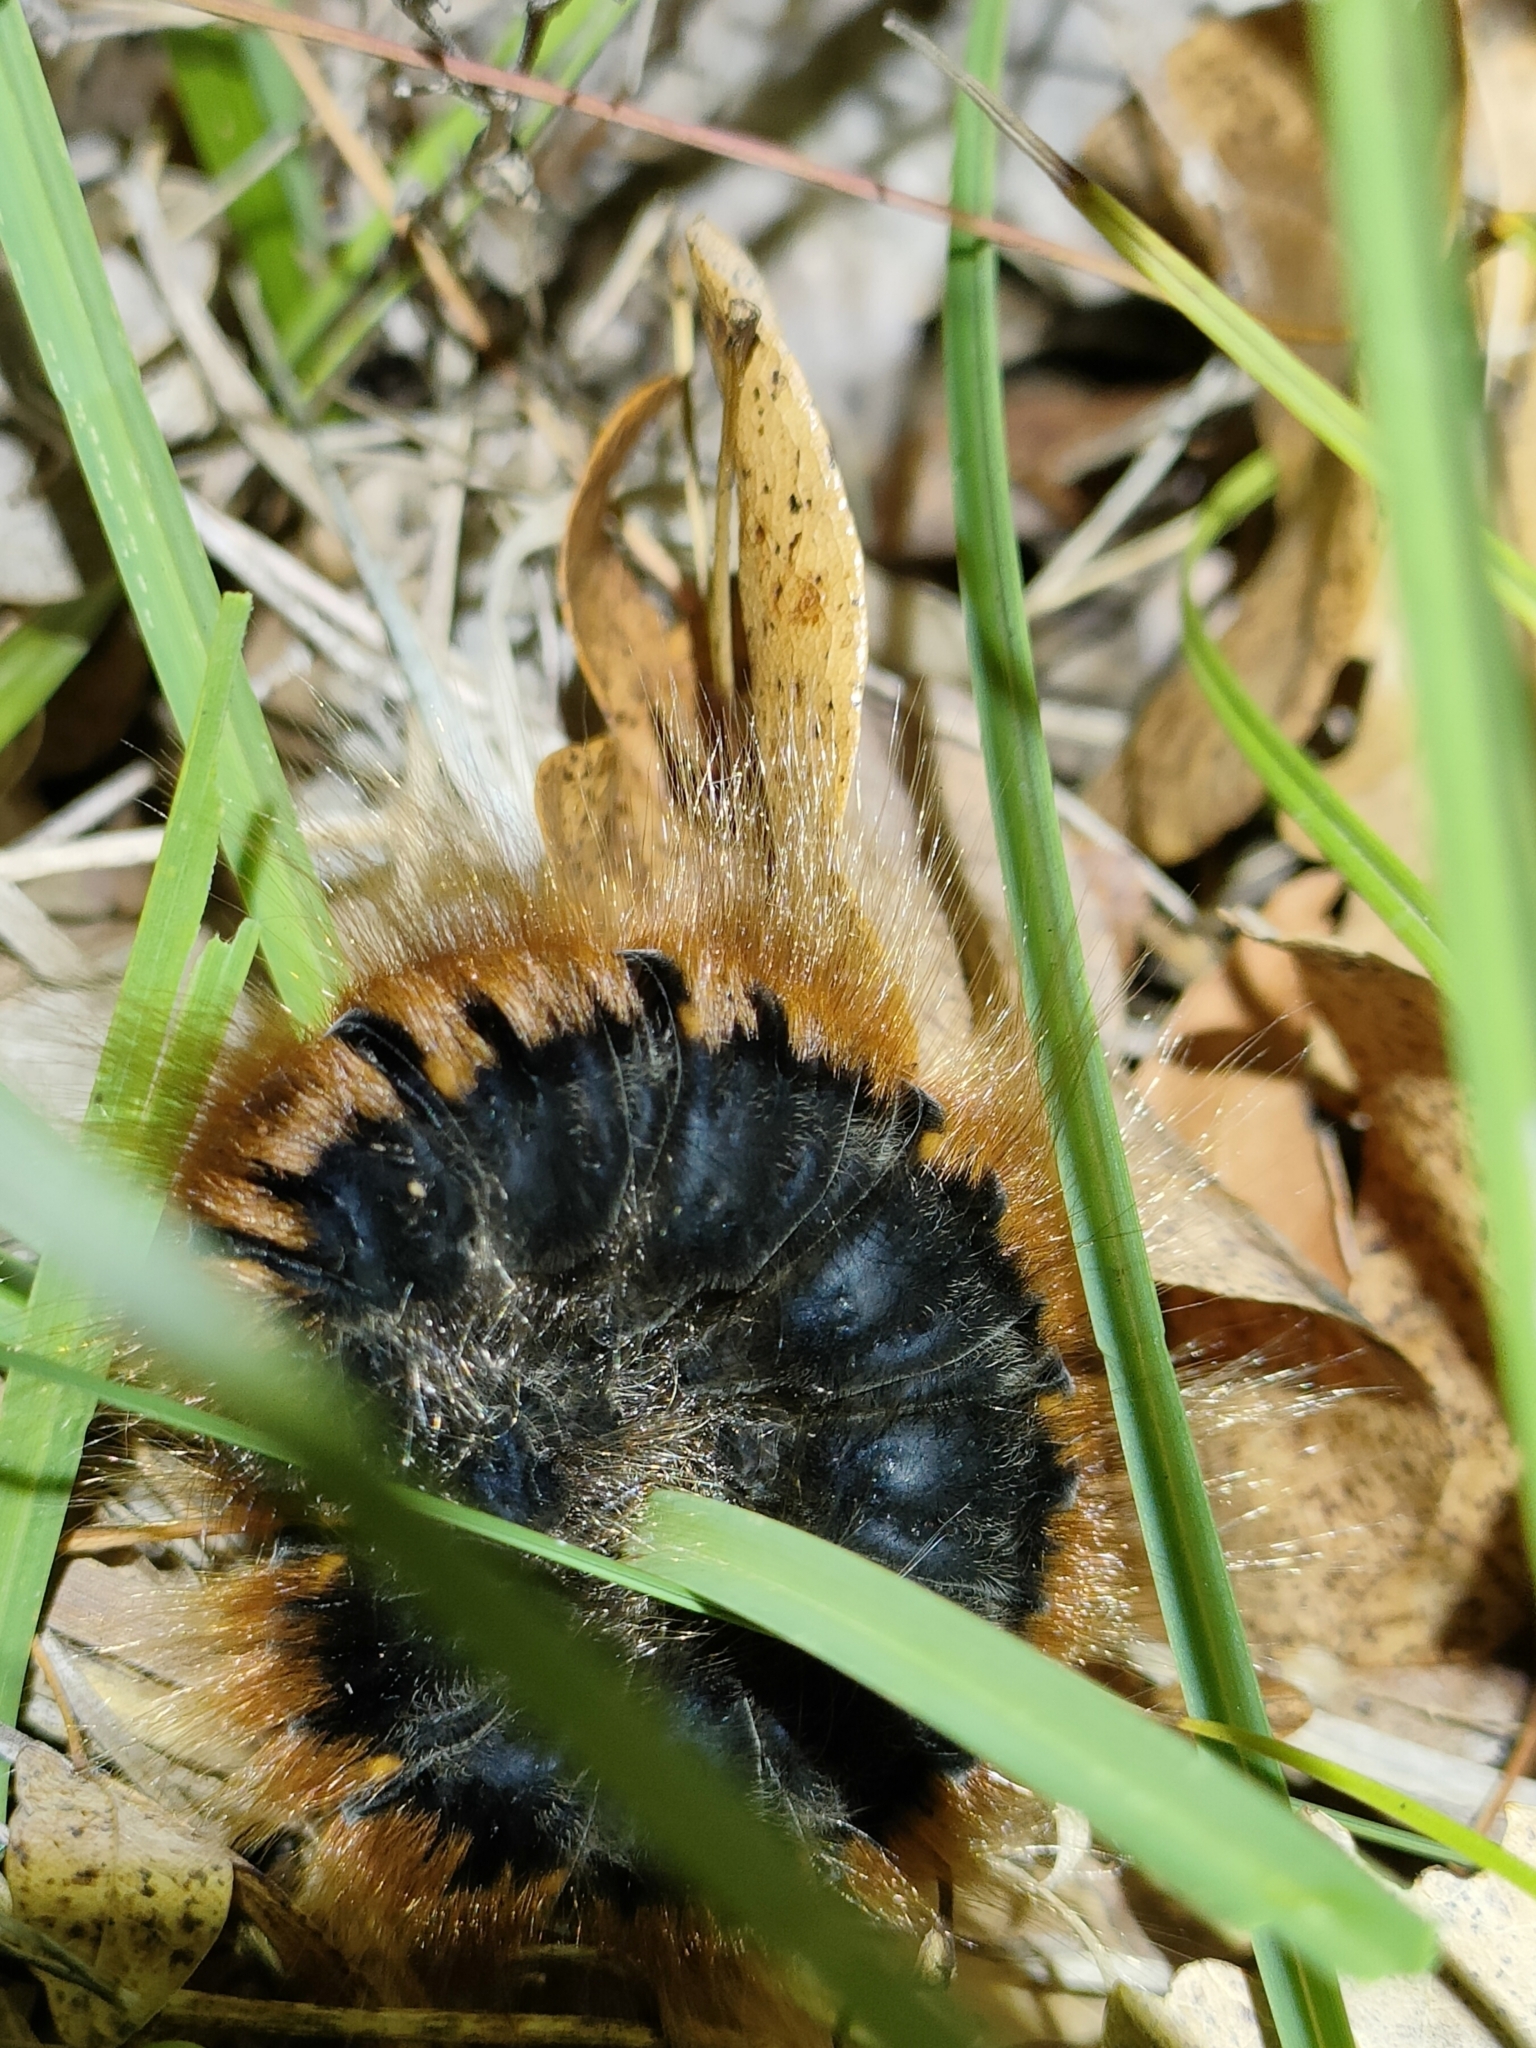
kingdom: Animalia
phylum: Arthropoda
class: Insecta
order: Lepidoptera
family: Lasiocampidae
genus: Macrothylacia
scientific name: Macrothylacia rubi
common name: Fox moth
